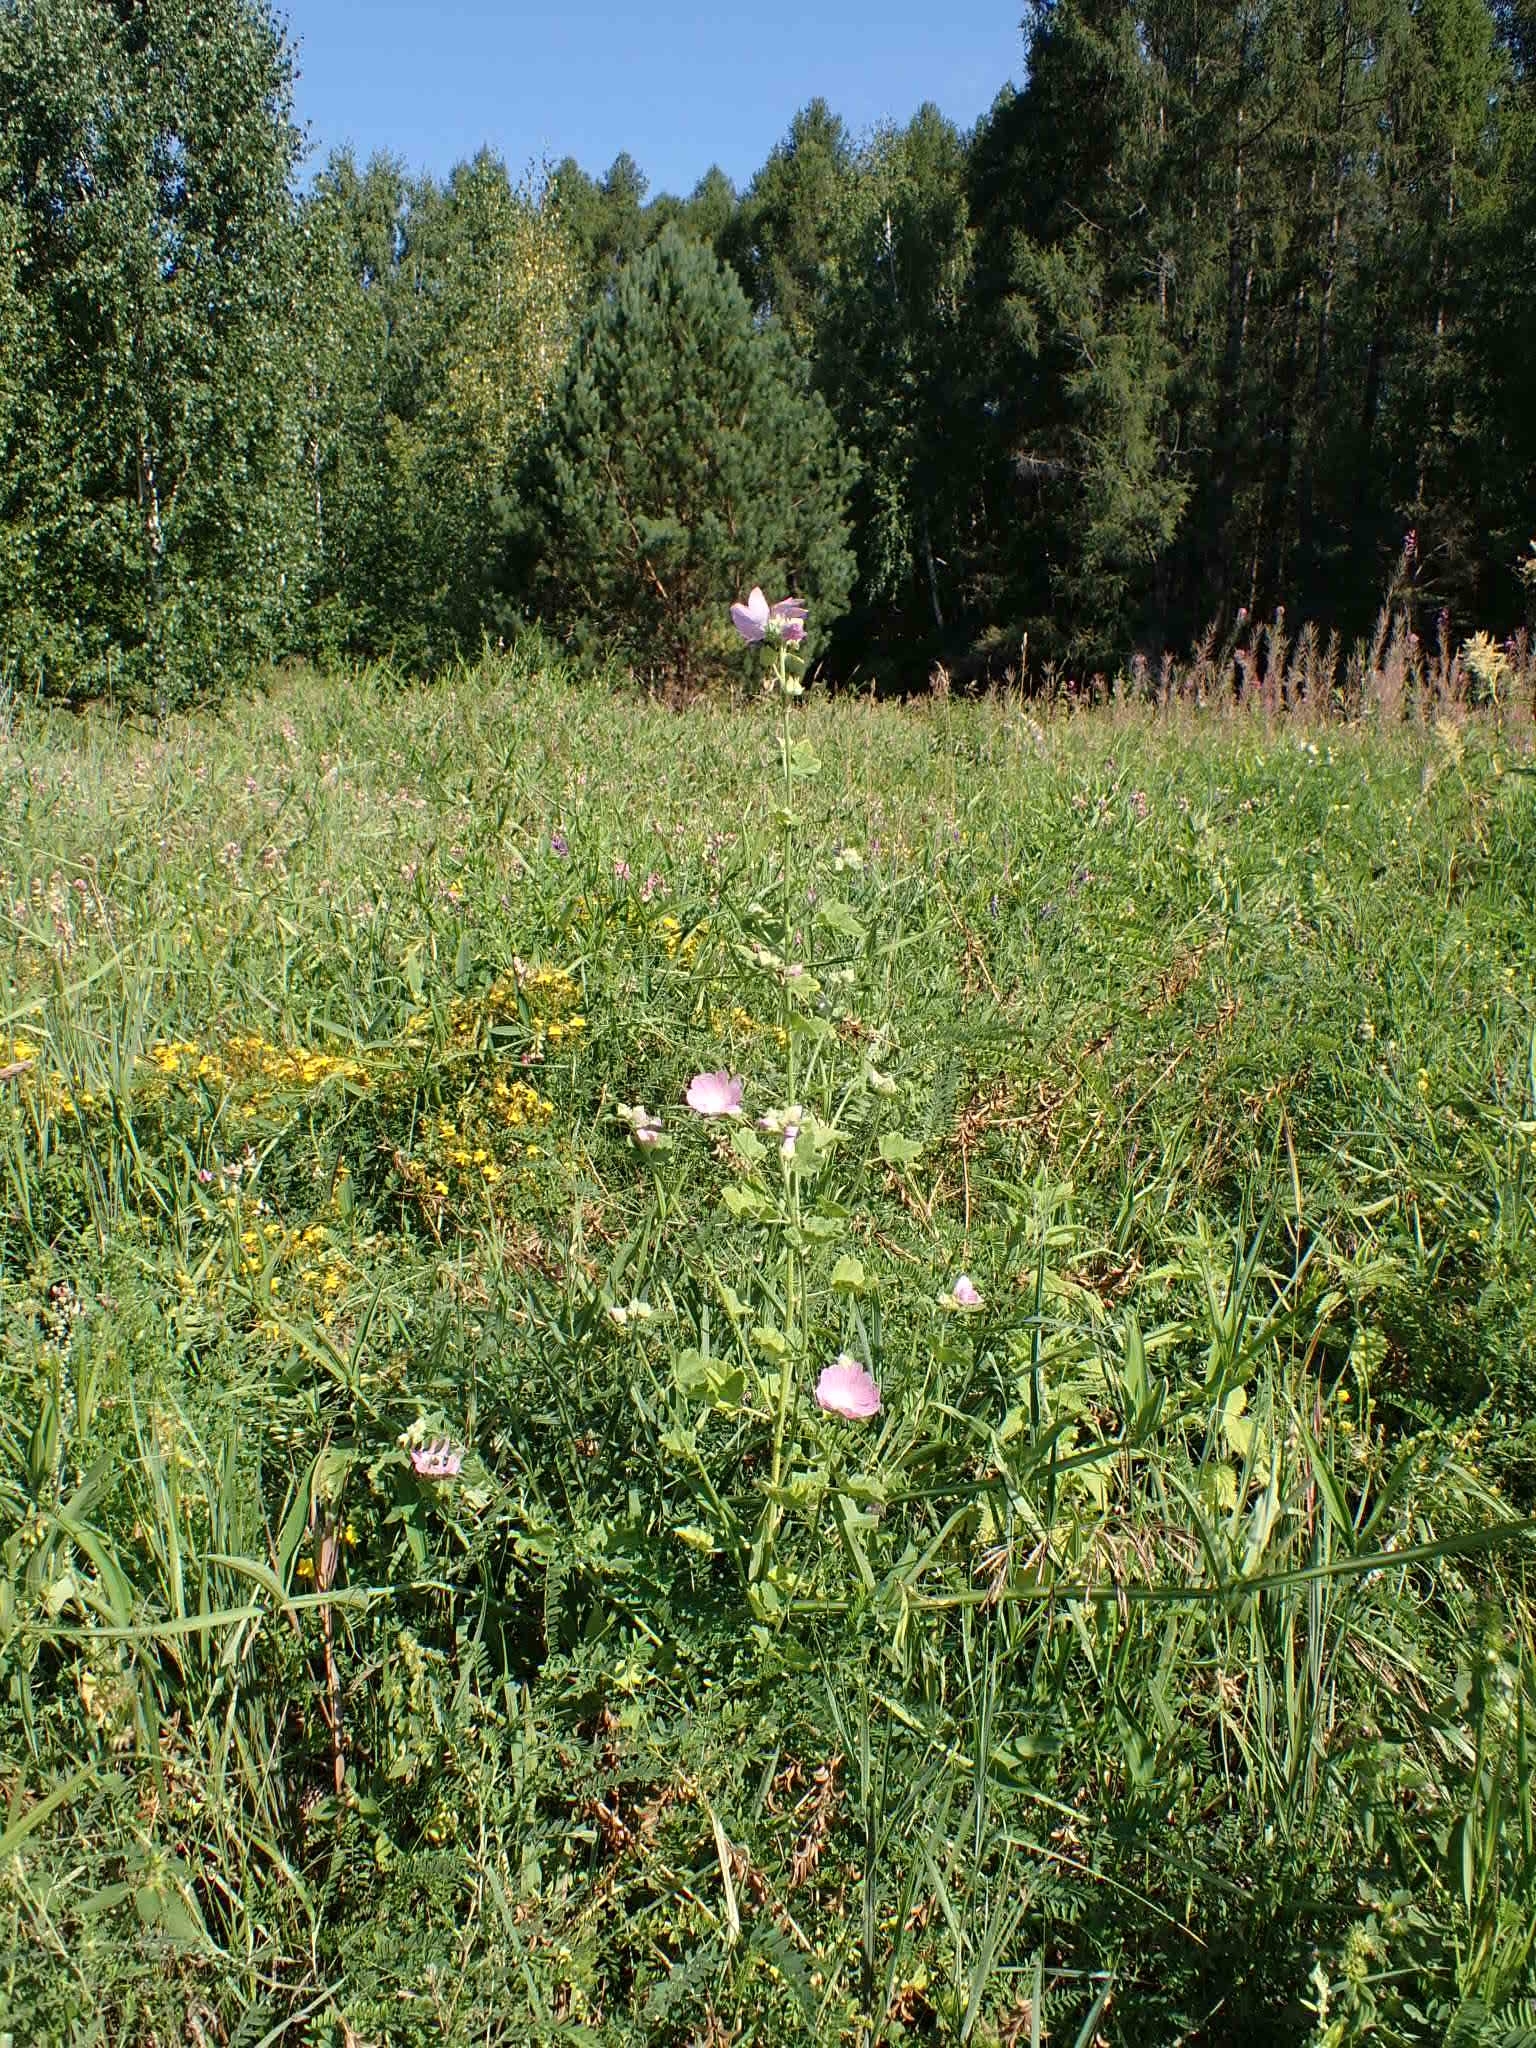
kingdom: Plantae
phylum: Tracheophyta
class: Magnoliopsida
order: Malvales
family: Malvaceae
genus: Malva
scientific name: Malva thuringiaca
